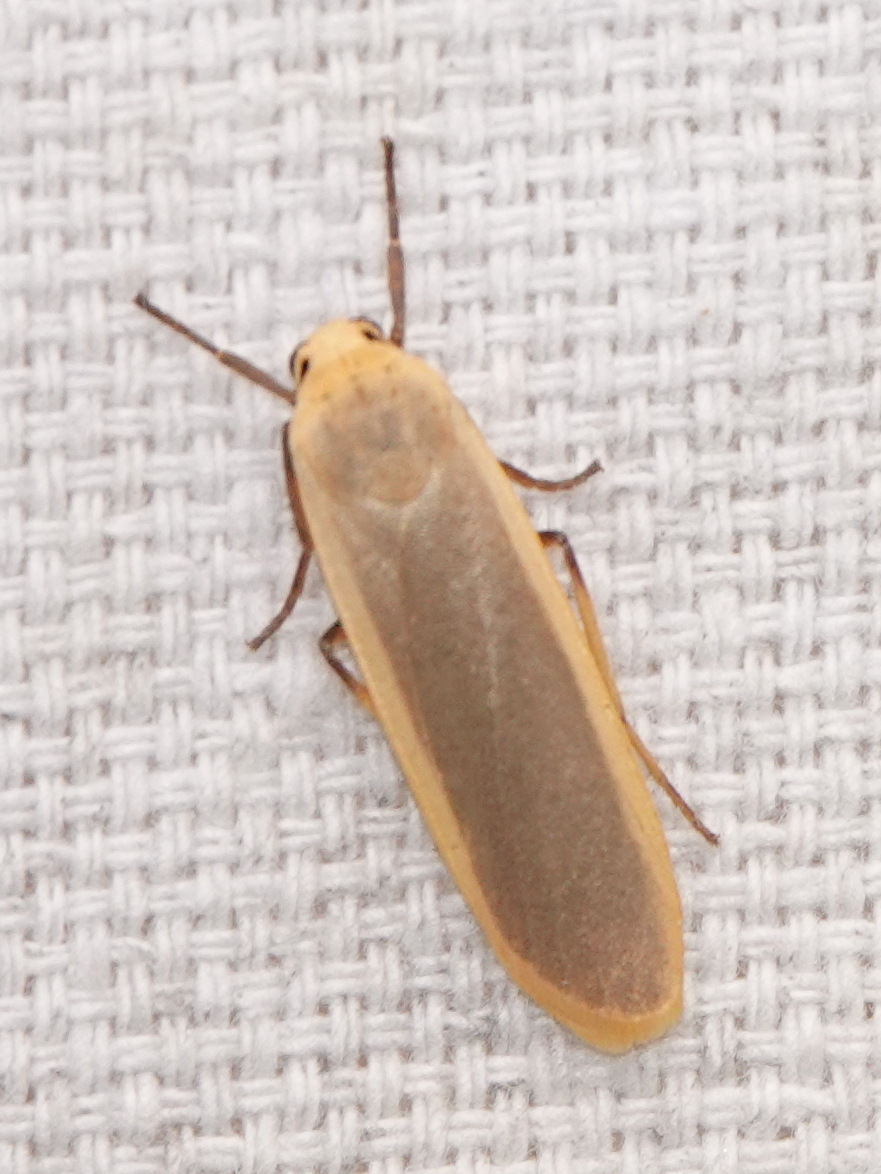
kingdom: Animalia
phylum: Arthropoda
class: Insecta
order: Lepidoptera
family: Erebidae
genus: Brunia
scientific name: Brunia antica
